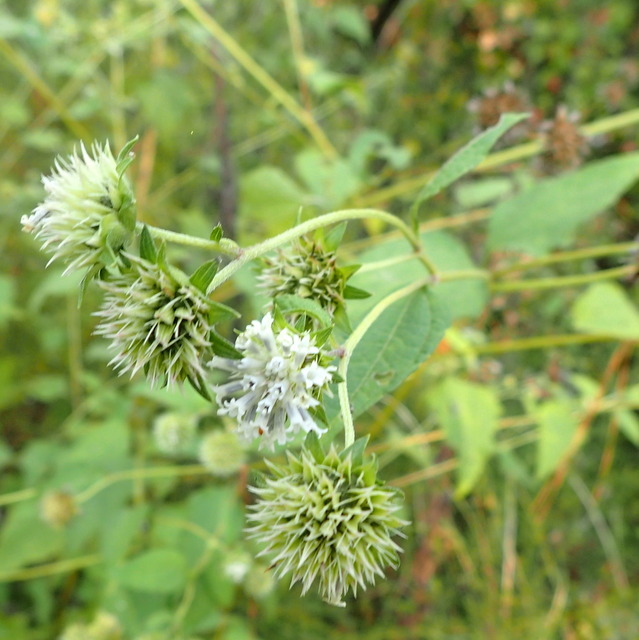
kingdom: Plantae
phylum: Tracheophyta
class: Magnoliopsida
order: Asterales
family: Asteraceae
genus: Melanthera
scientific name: Melanthera nivea
